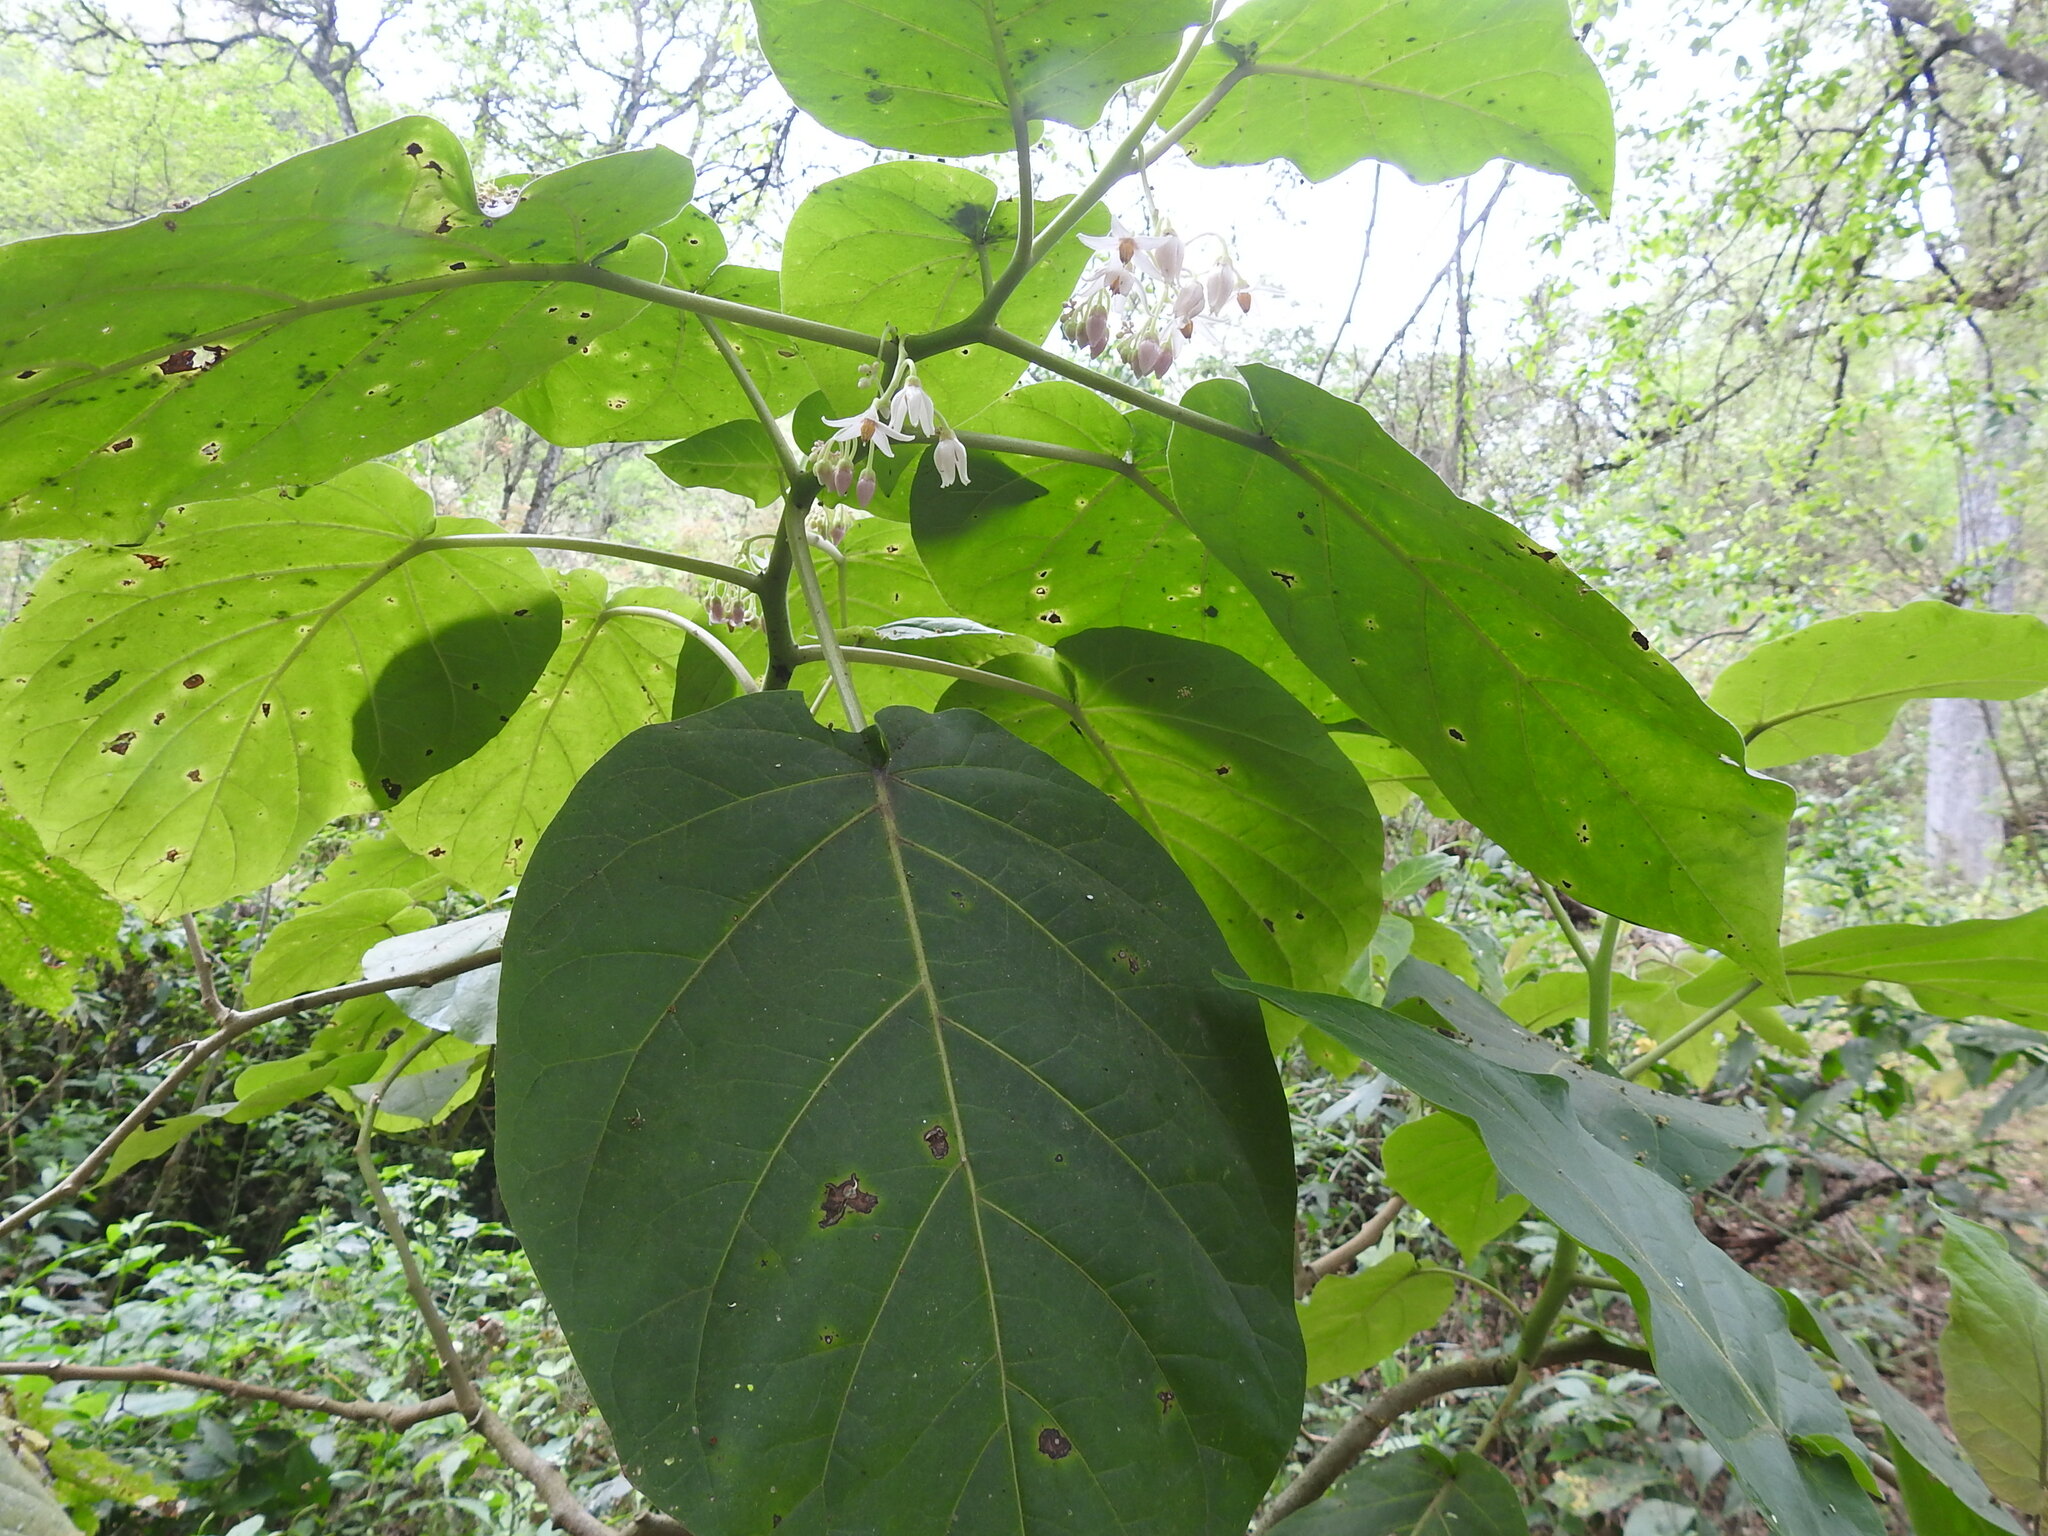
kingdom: Plantae
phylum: Tracheophyta
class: Magnoliopsida
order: Solanales
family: Solanaceae
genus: Solanum
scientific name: Solanum betaceum
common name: Tamarillo
